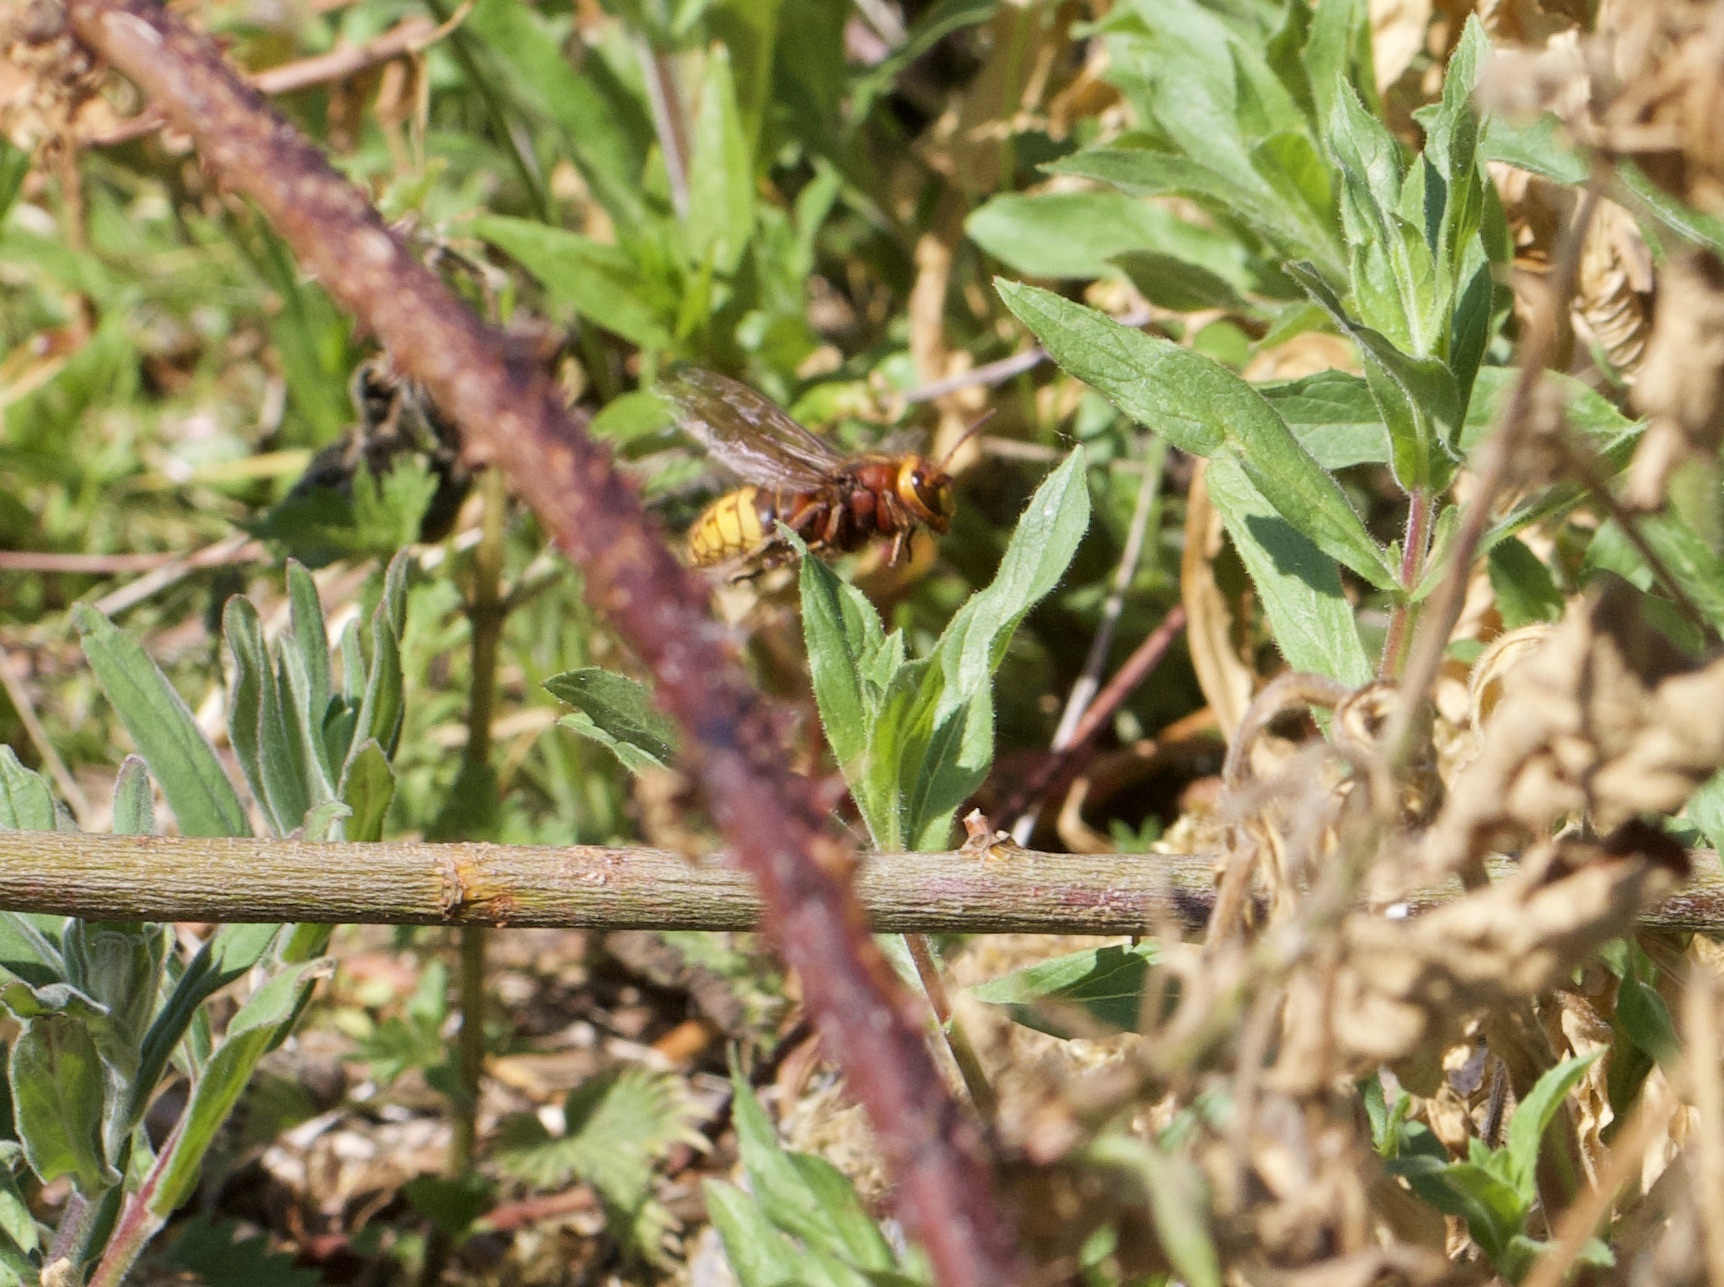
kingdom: Animalia
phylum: Arthropoda
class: Insecta
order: Hymenoptera
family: Vespidae
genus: Vespa
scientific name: Vespa crabro
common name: Hornet
